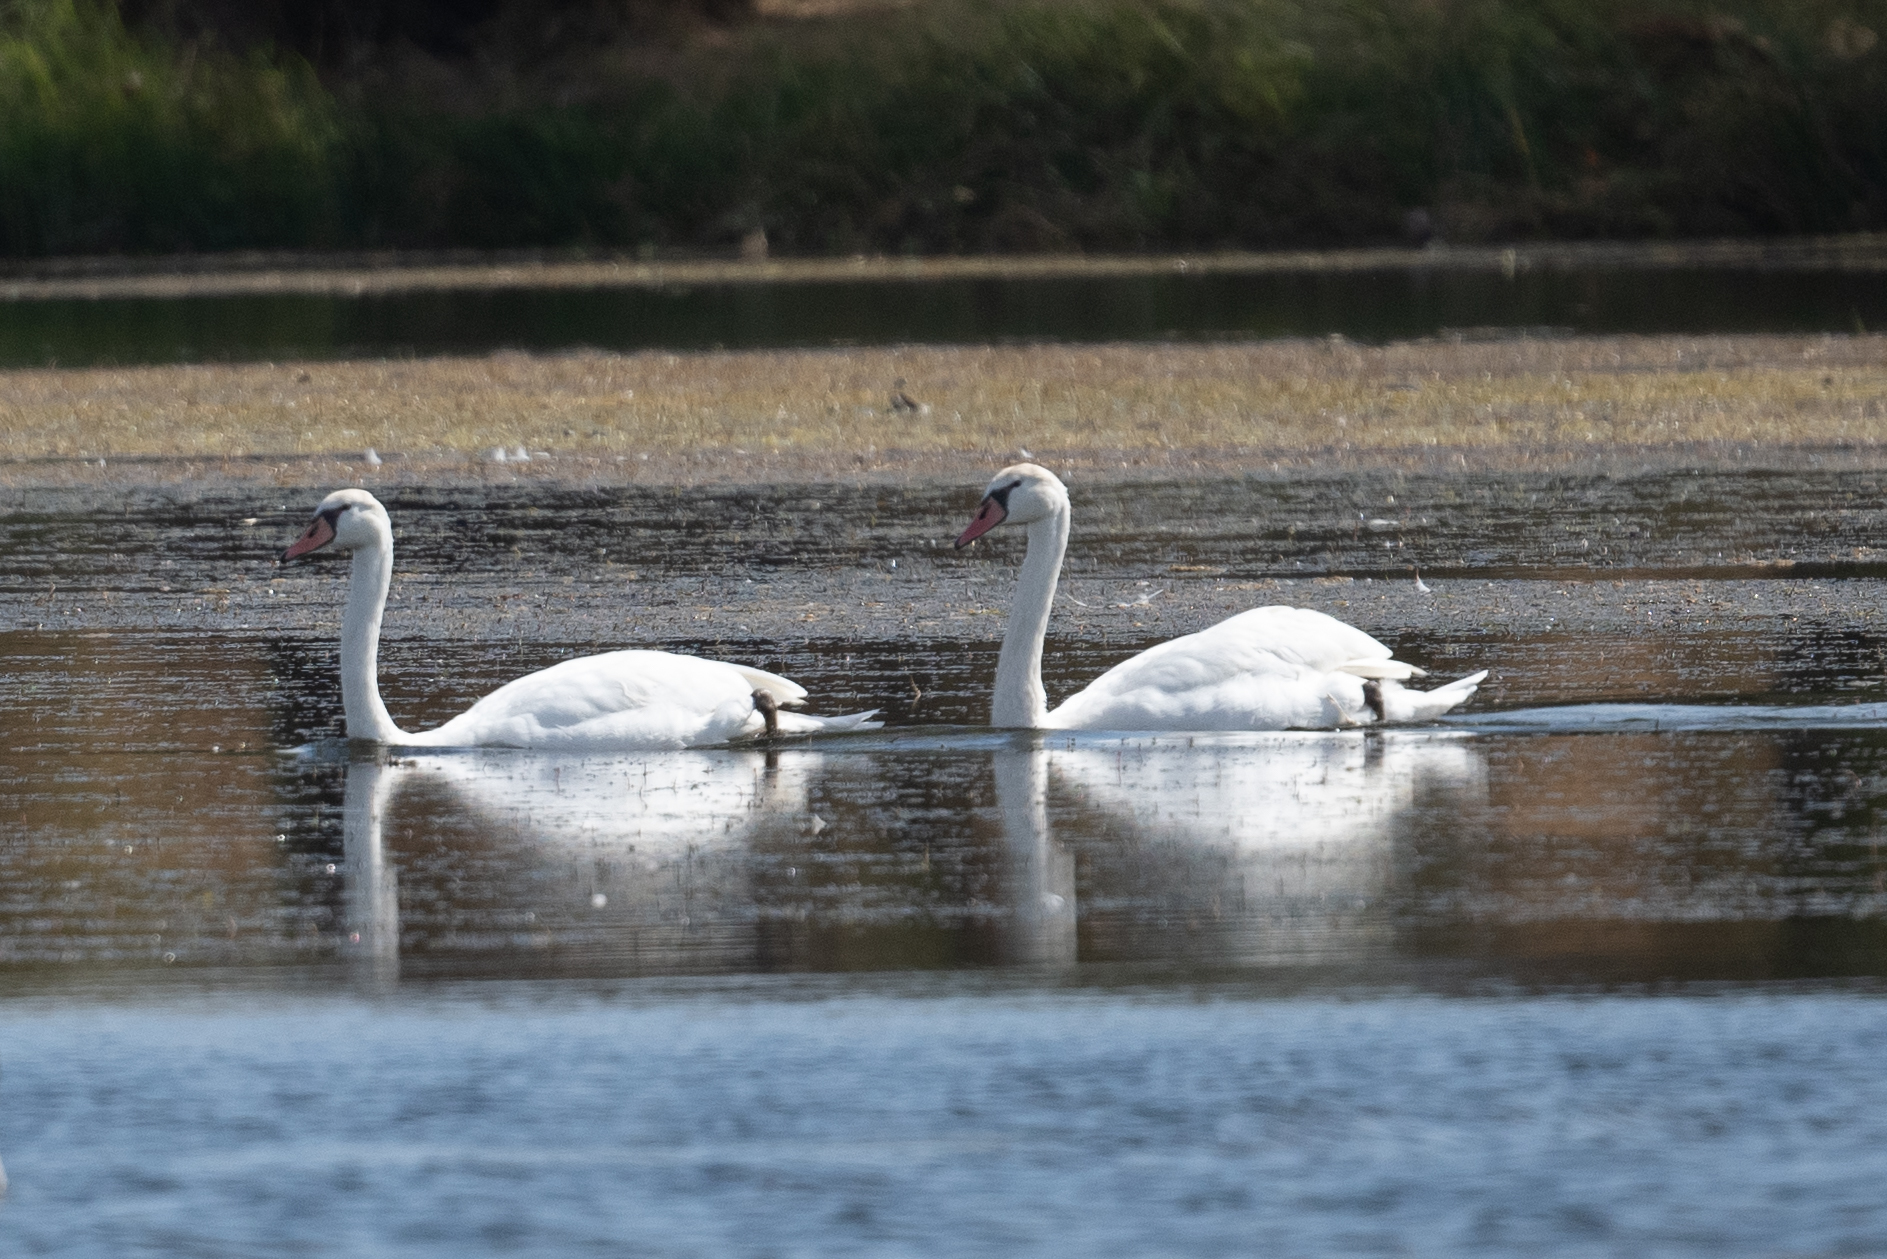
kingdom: Animalia
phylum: Chordata
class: Aves
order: Anseriformes
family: Anatidae
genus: Cygnus
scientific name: Cygnus olor
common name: Mute swan
